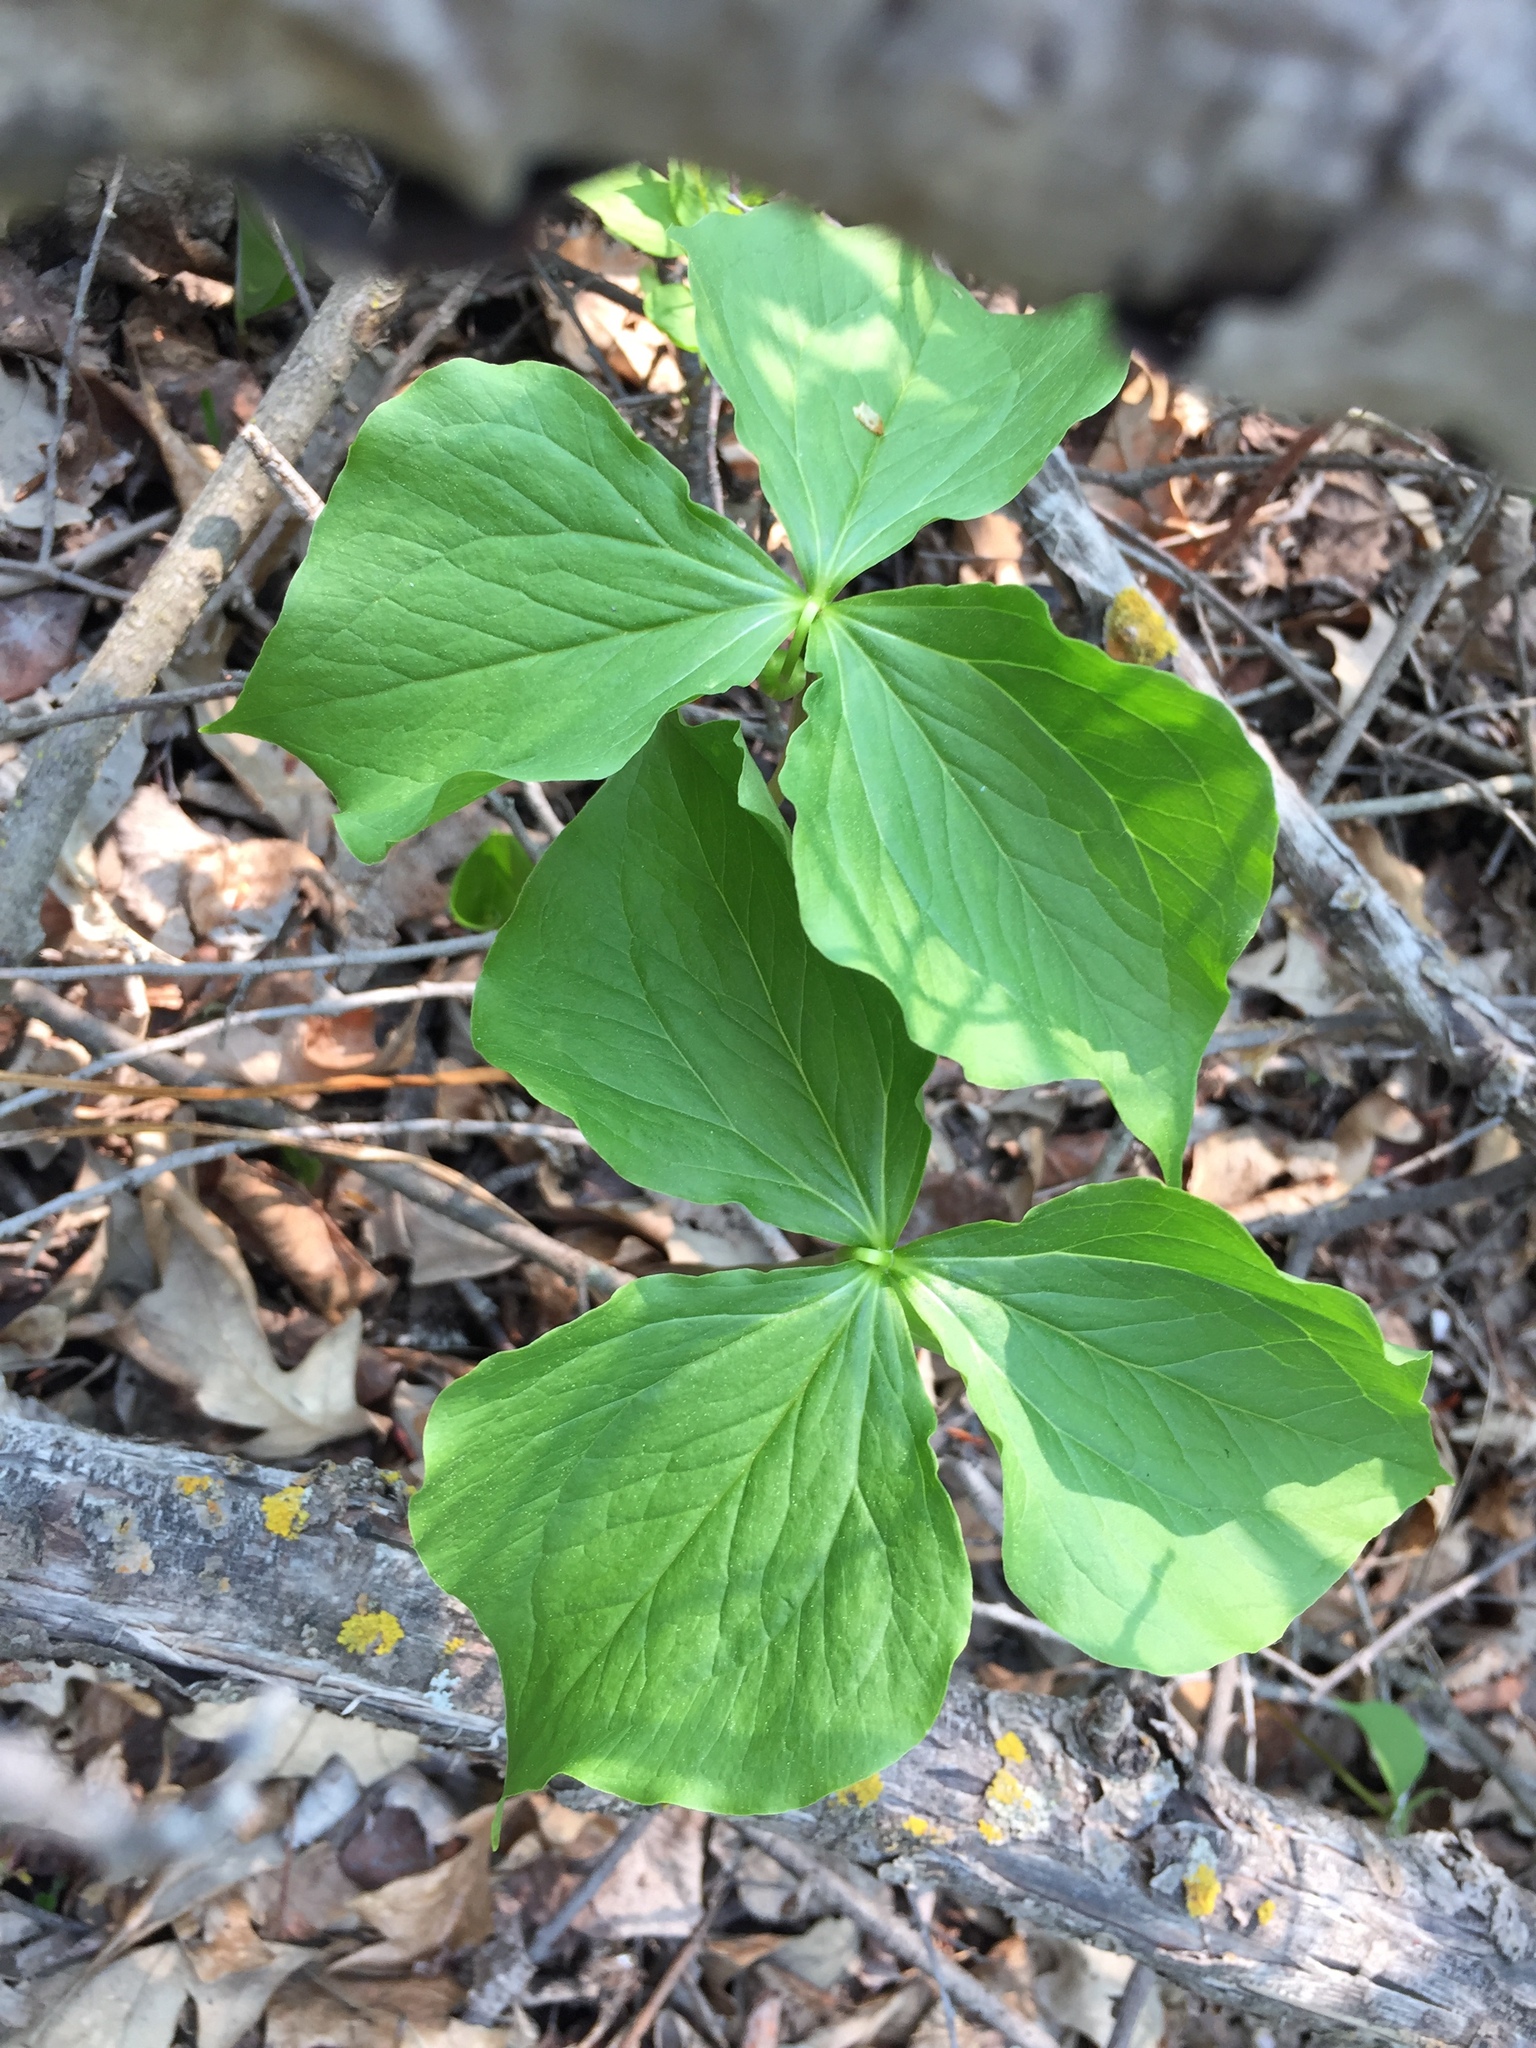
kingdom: Plantae
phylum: Tracheophyta
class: Liliopsida
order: Liliales
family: Melanthiaceae
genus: Trillium
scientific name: Trillium cernuum
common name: Nodding trillium
